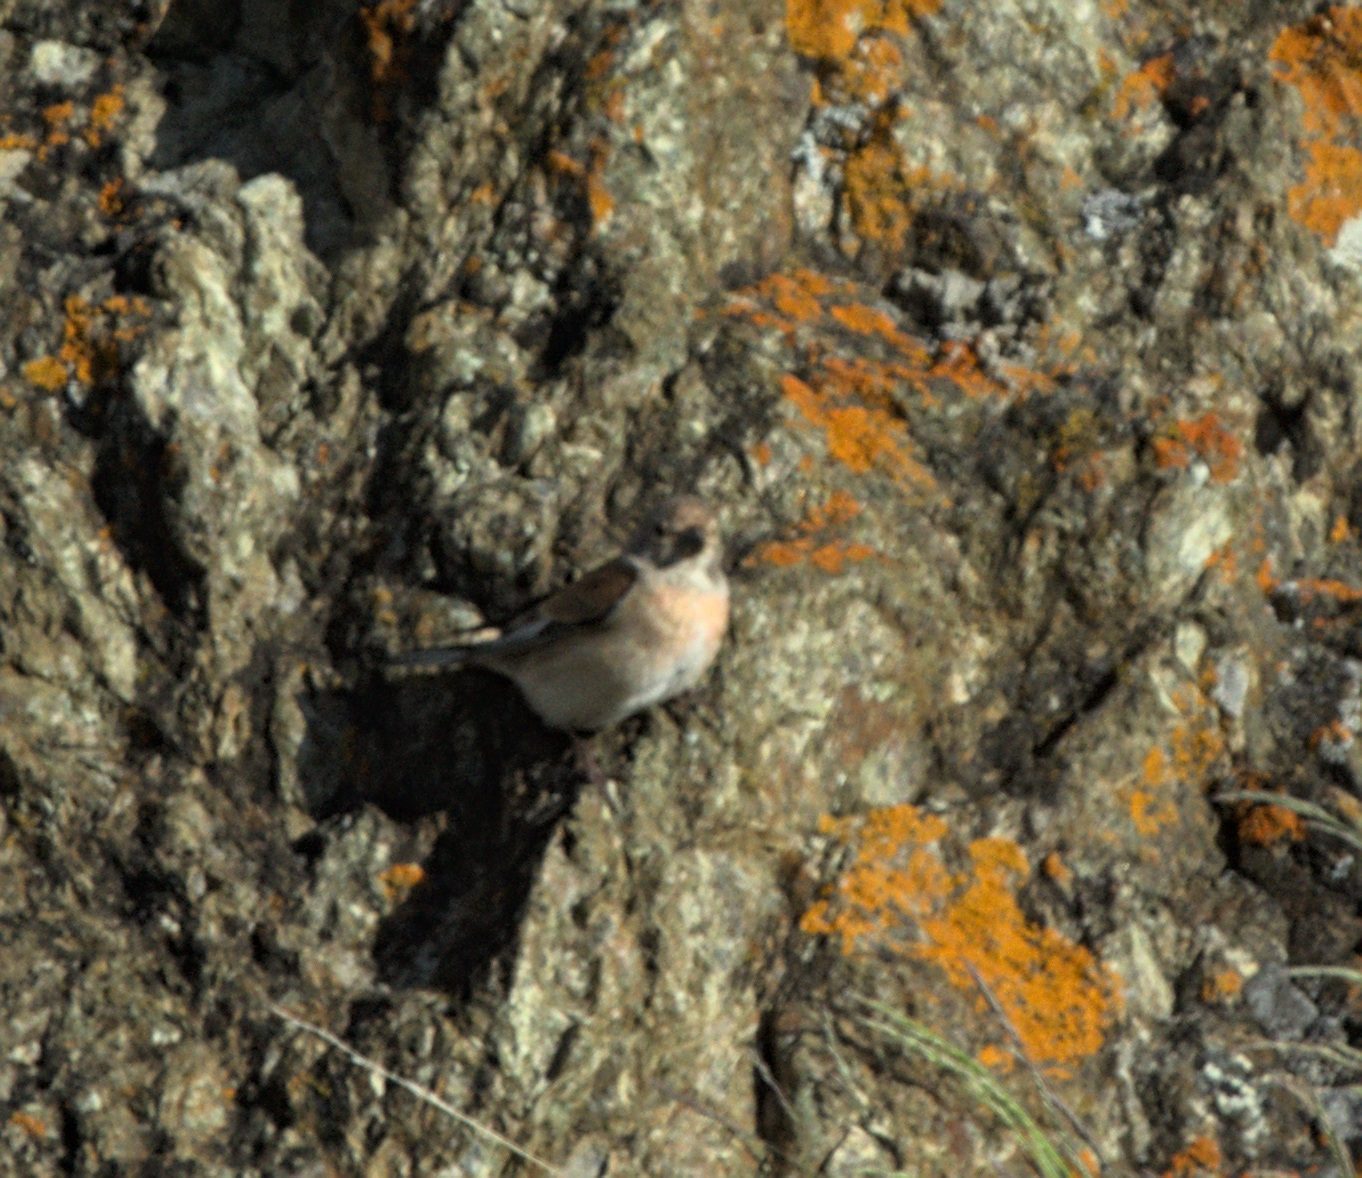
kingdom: Animalia
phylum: Chordata
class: Aves
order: Passeriformes
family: Fringillidae
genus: Linaria
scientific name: Linaria cannabina
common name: Common linnet
